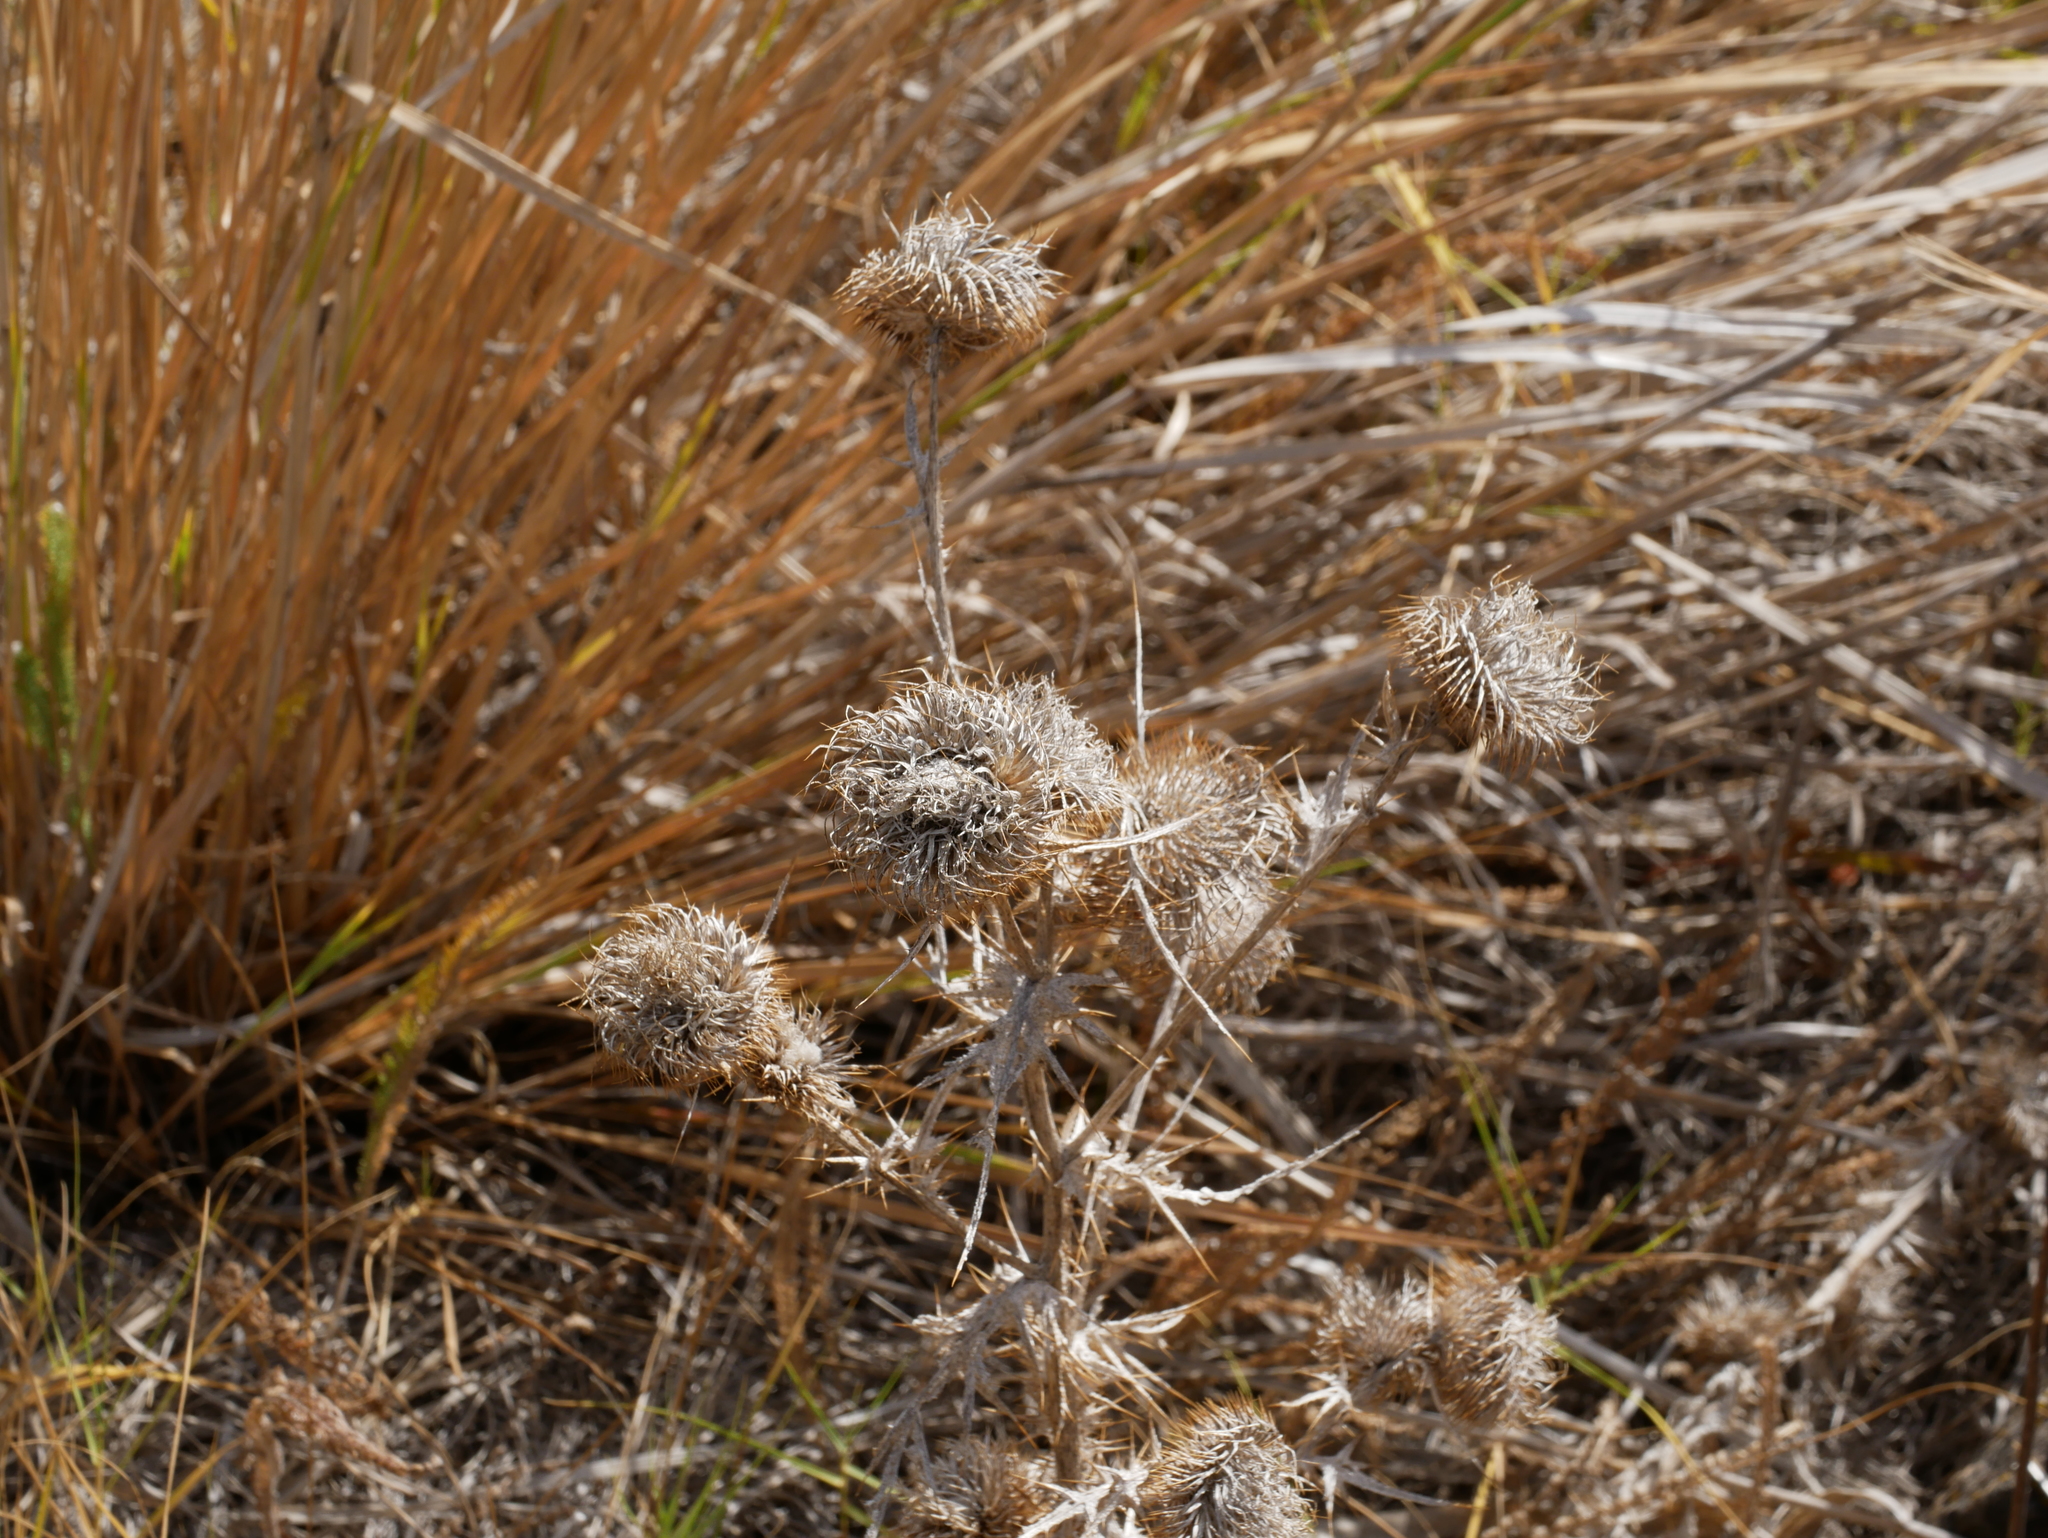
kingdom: Plantae
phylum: Tracheophyta
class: Magnoliopsida
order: Asterales
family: Asteraceae
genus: Cirsium
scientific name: Cirsium undulatum
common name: Pasture thistle
